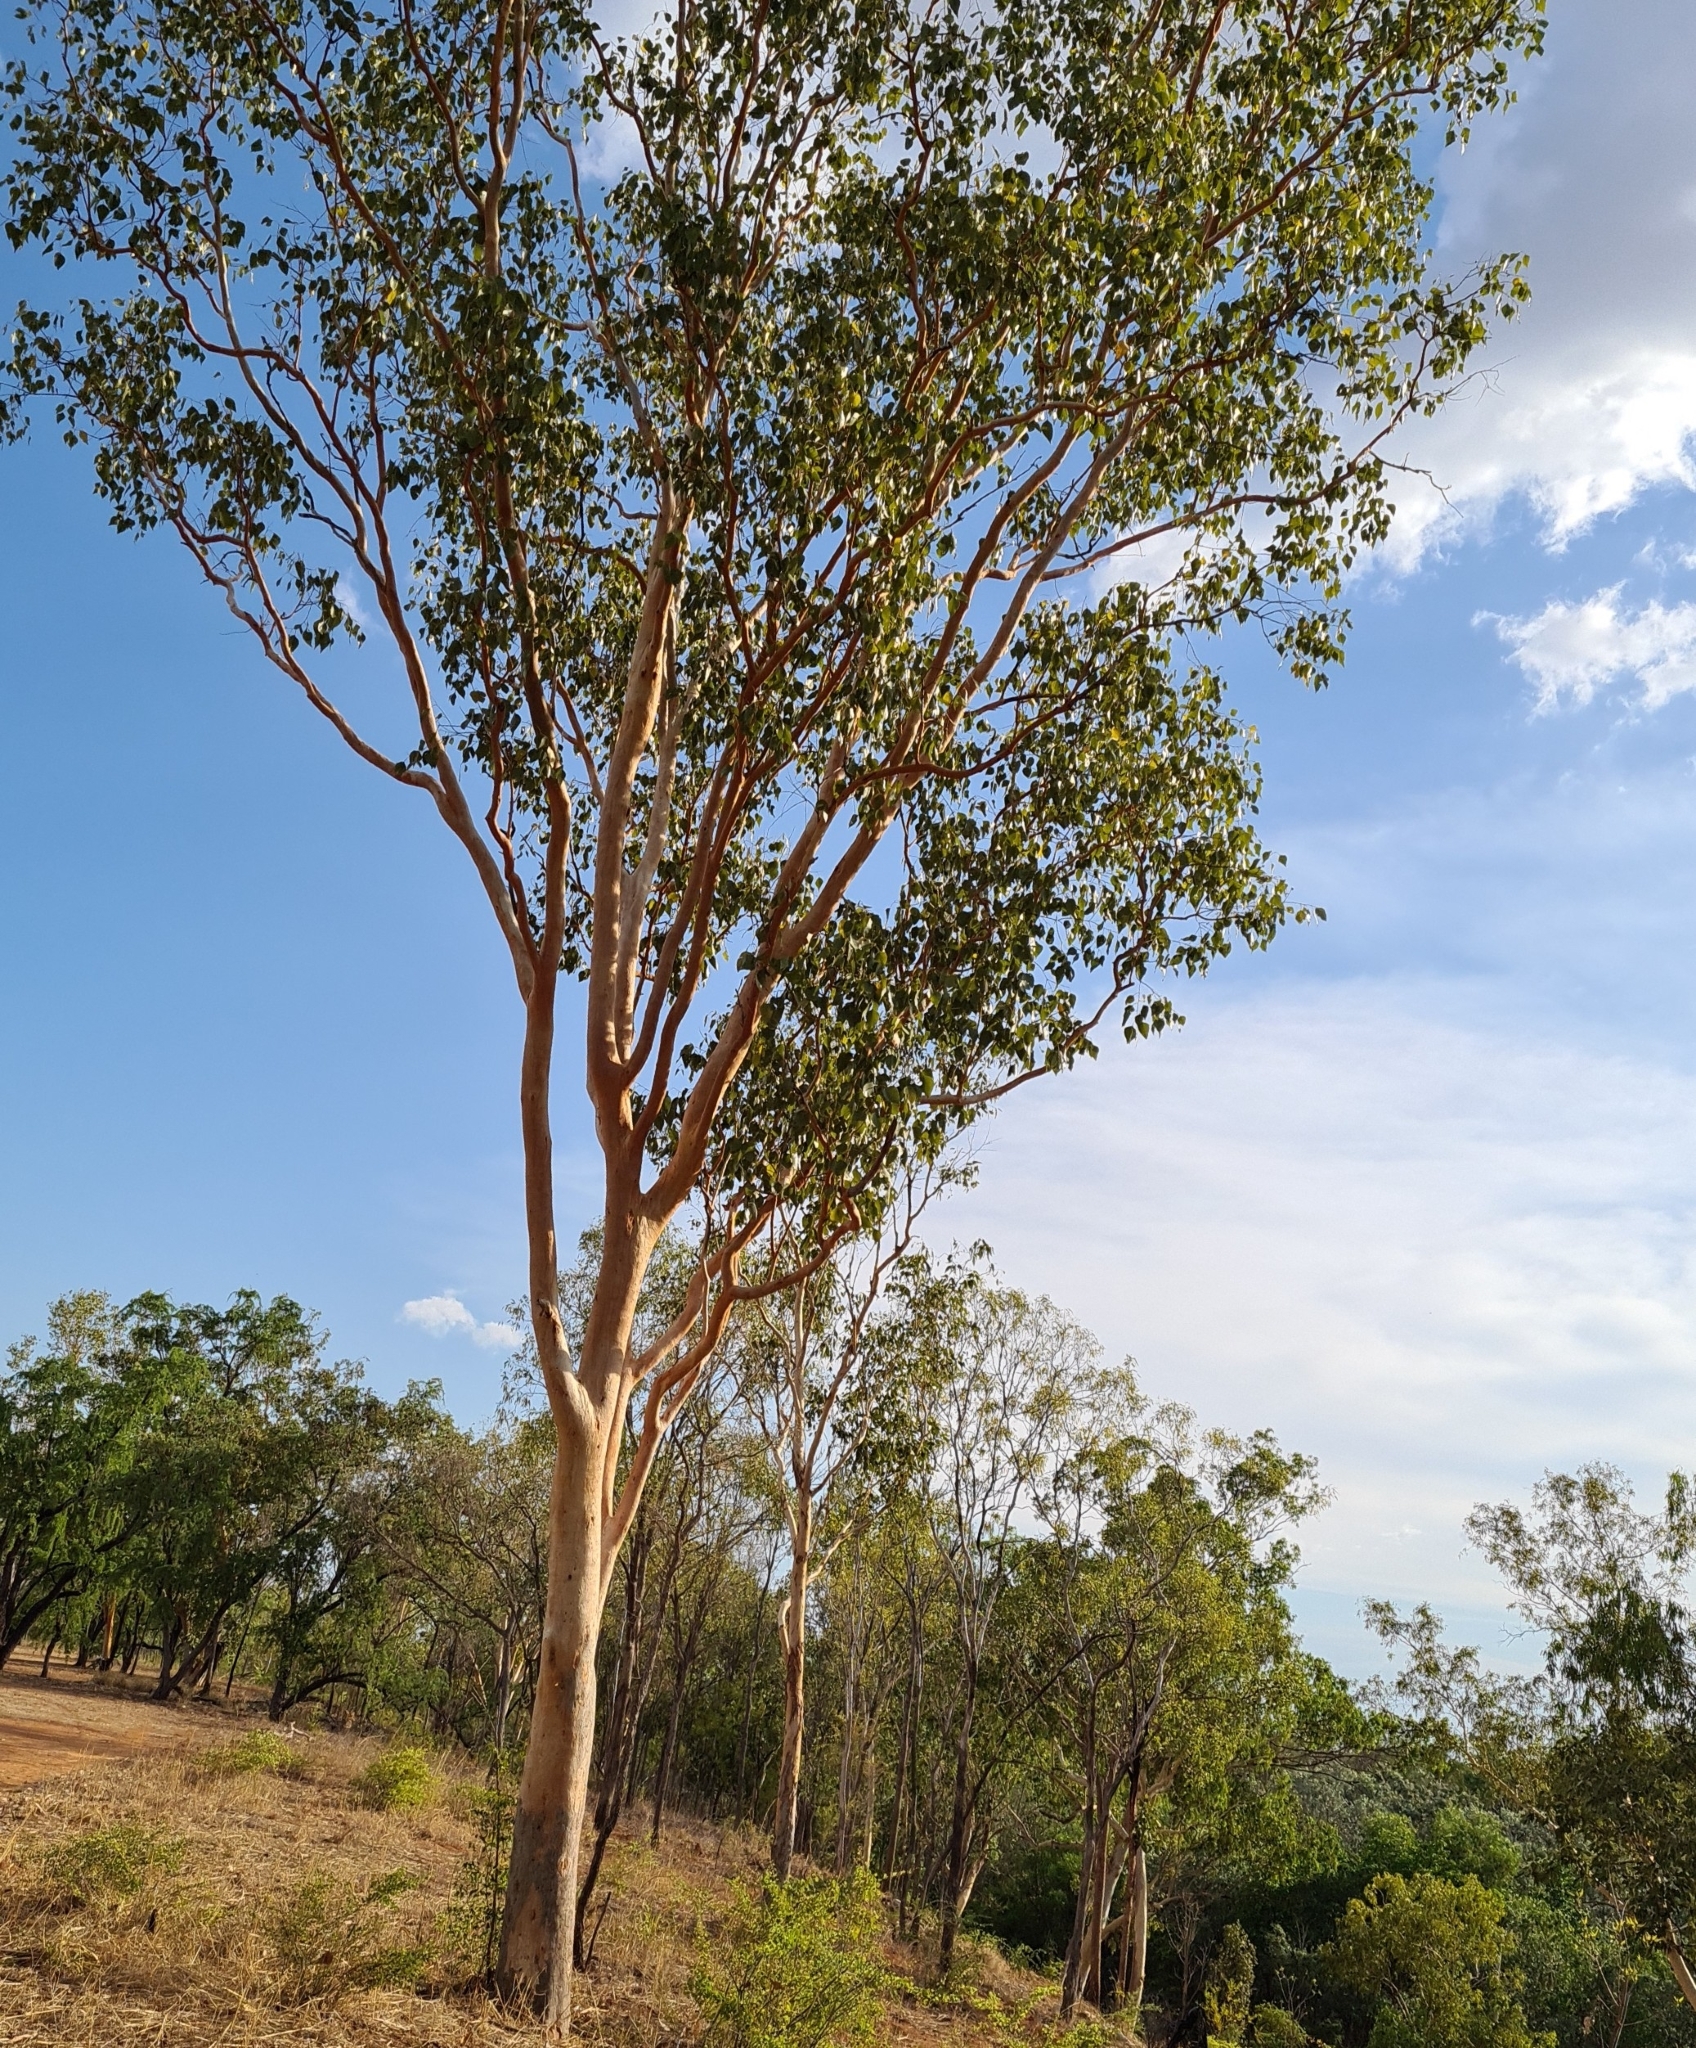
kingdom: Plantae
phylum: Tracheophyta
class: Magnoliopsida
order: Myrtales
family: Myrtaceae
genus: Eucalyptus
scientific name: Eucalyptus bigalerita
